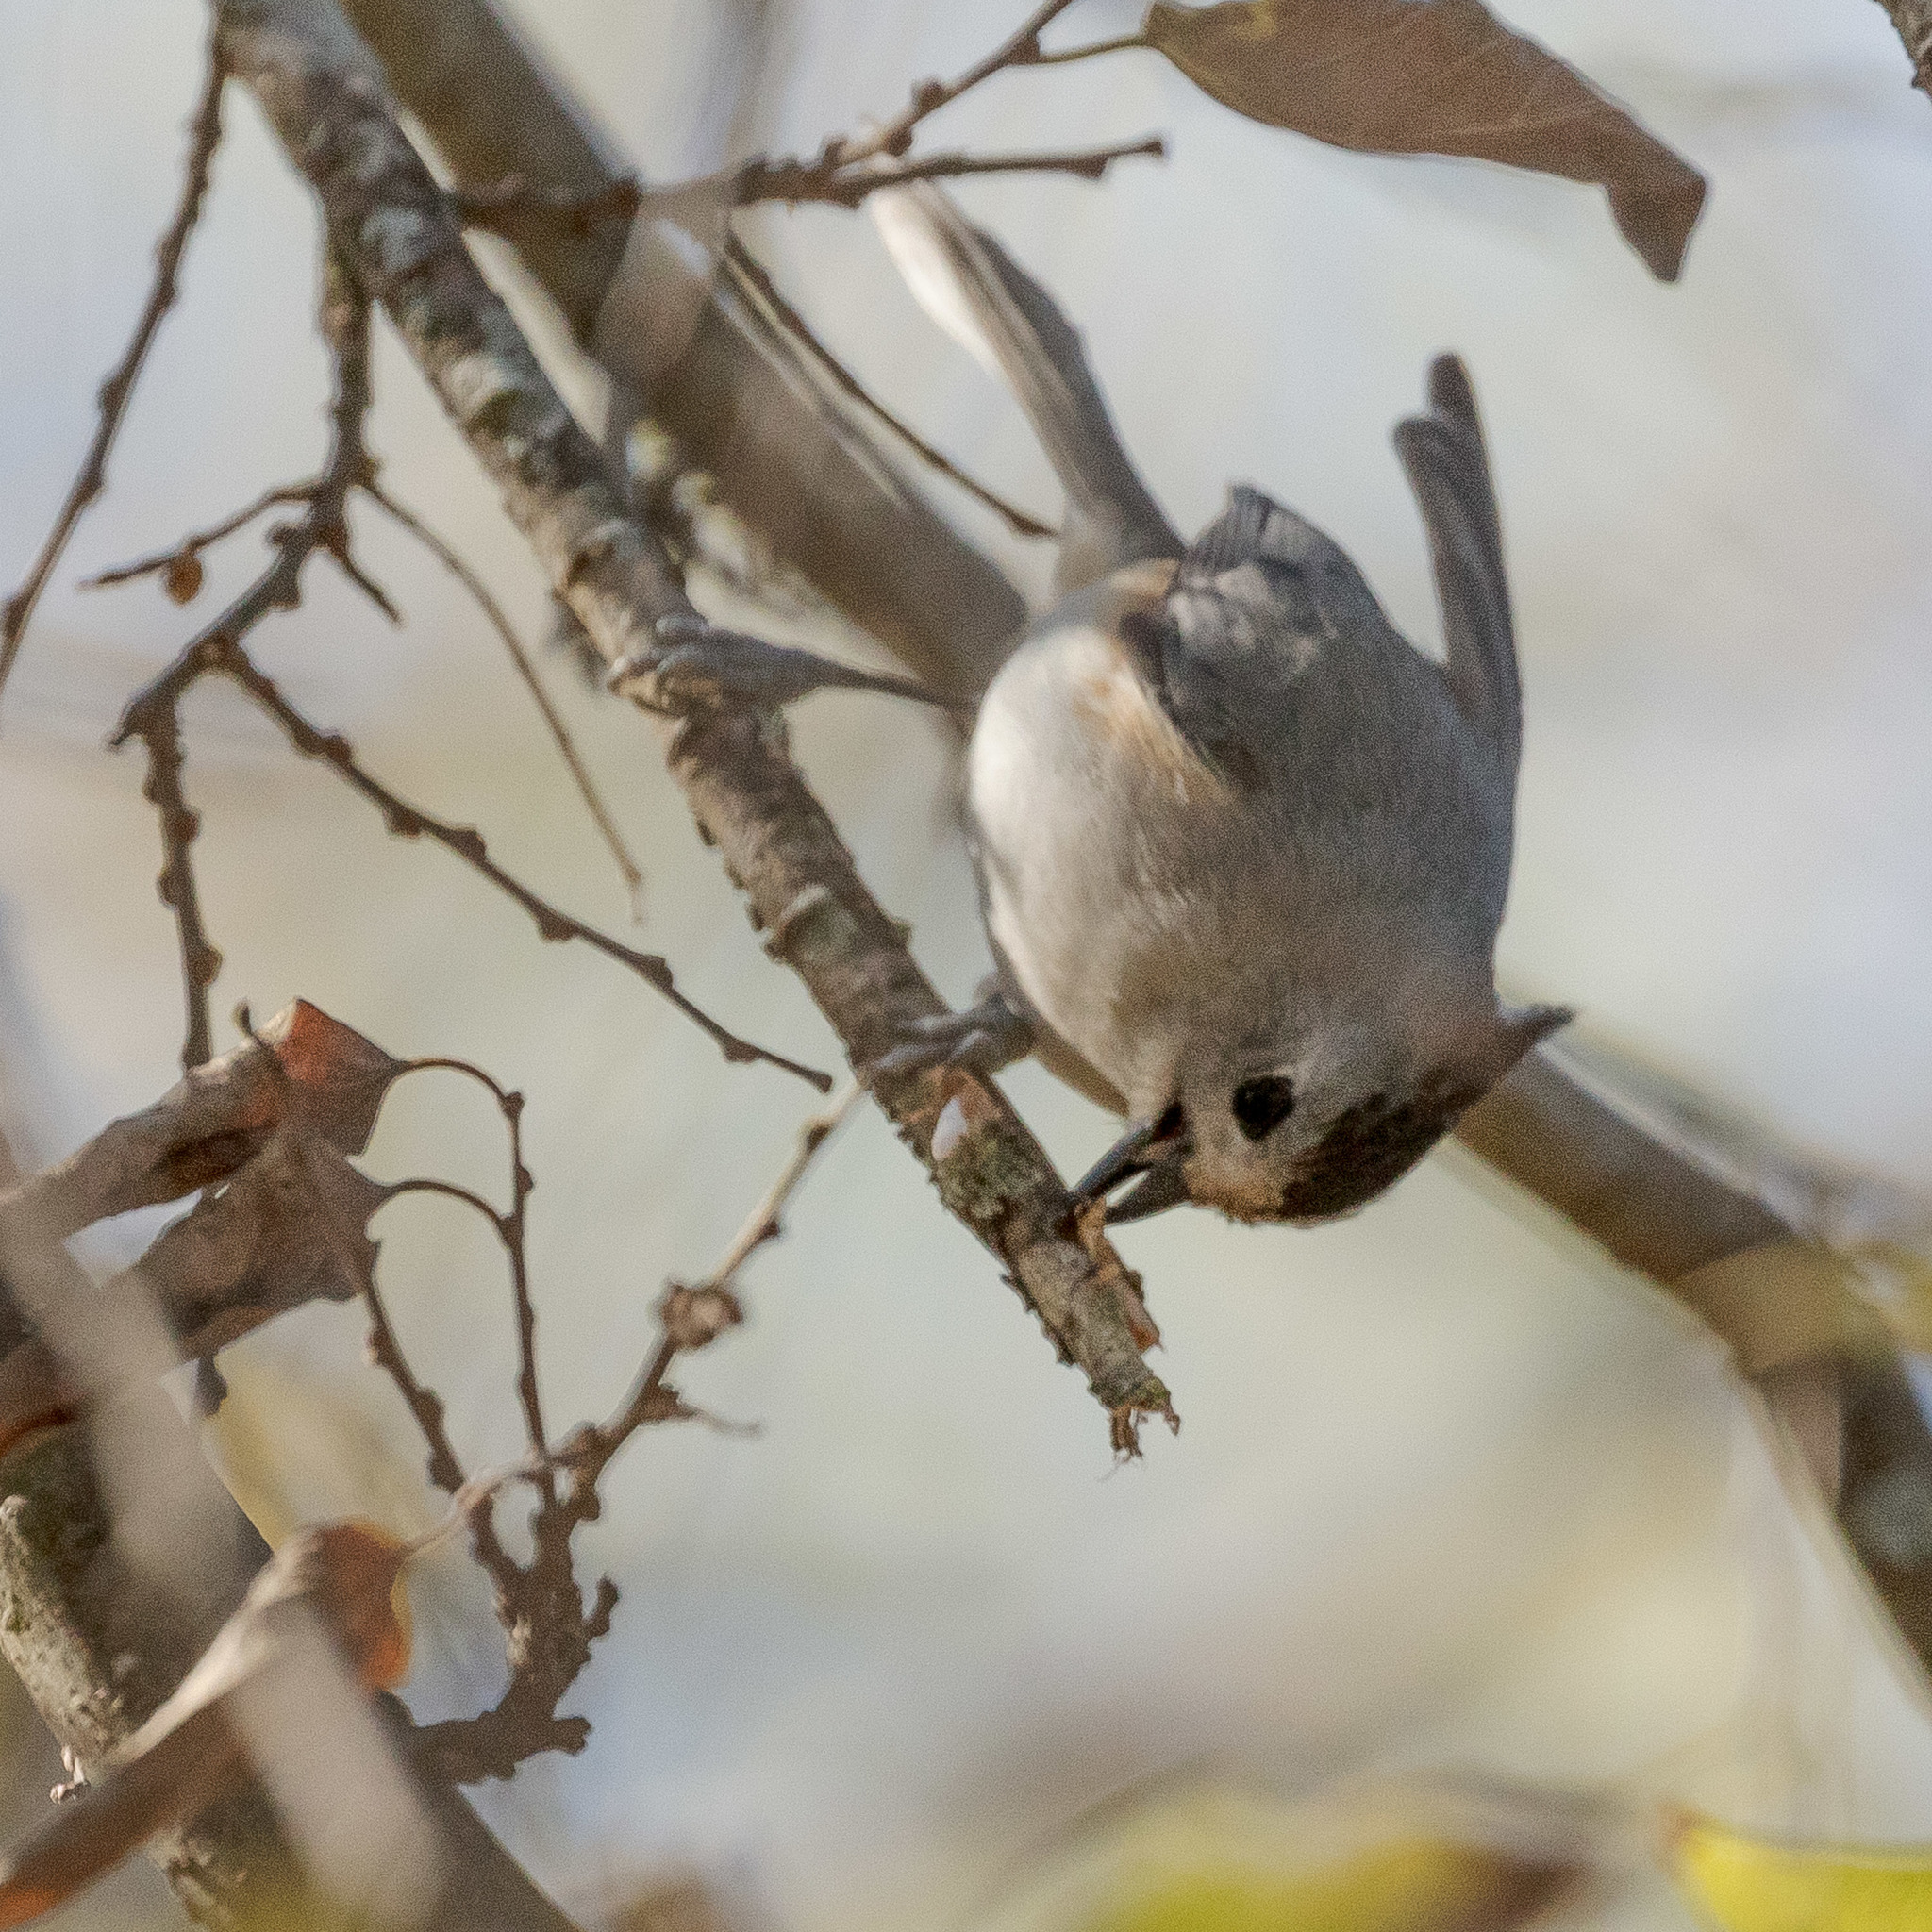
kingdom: Animalia
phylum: Chordata
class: Aves
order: Passeriformes
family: Paridae
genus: Baeolophus
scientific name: Baeolophus
